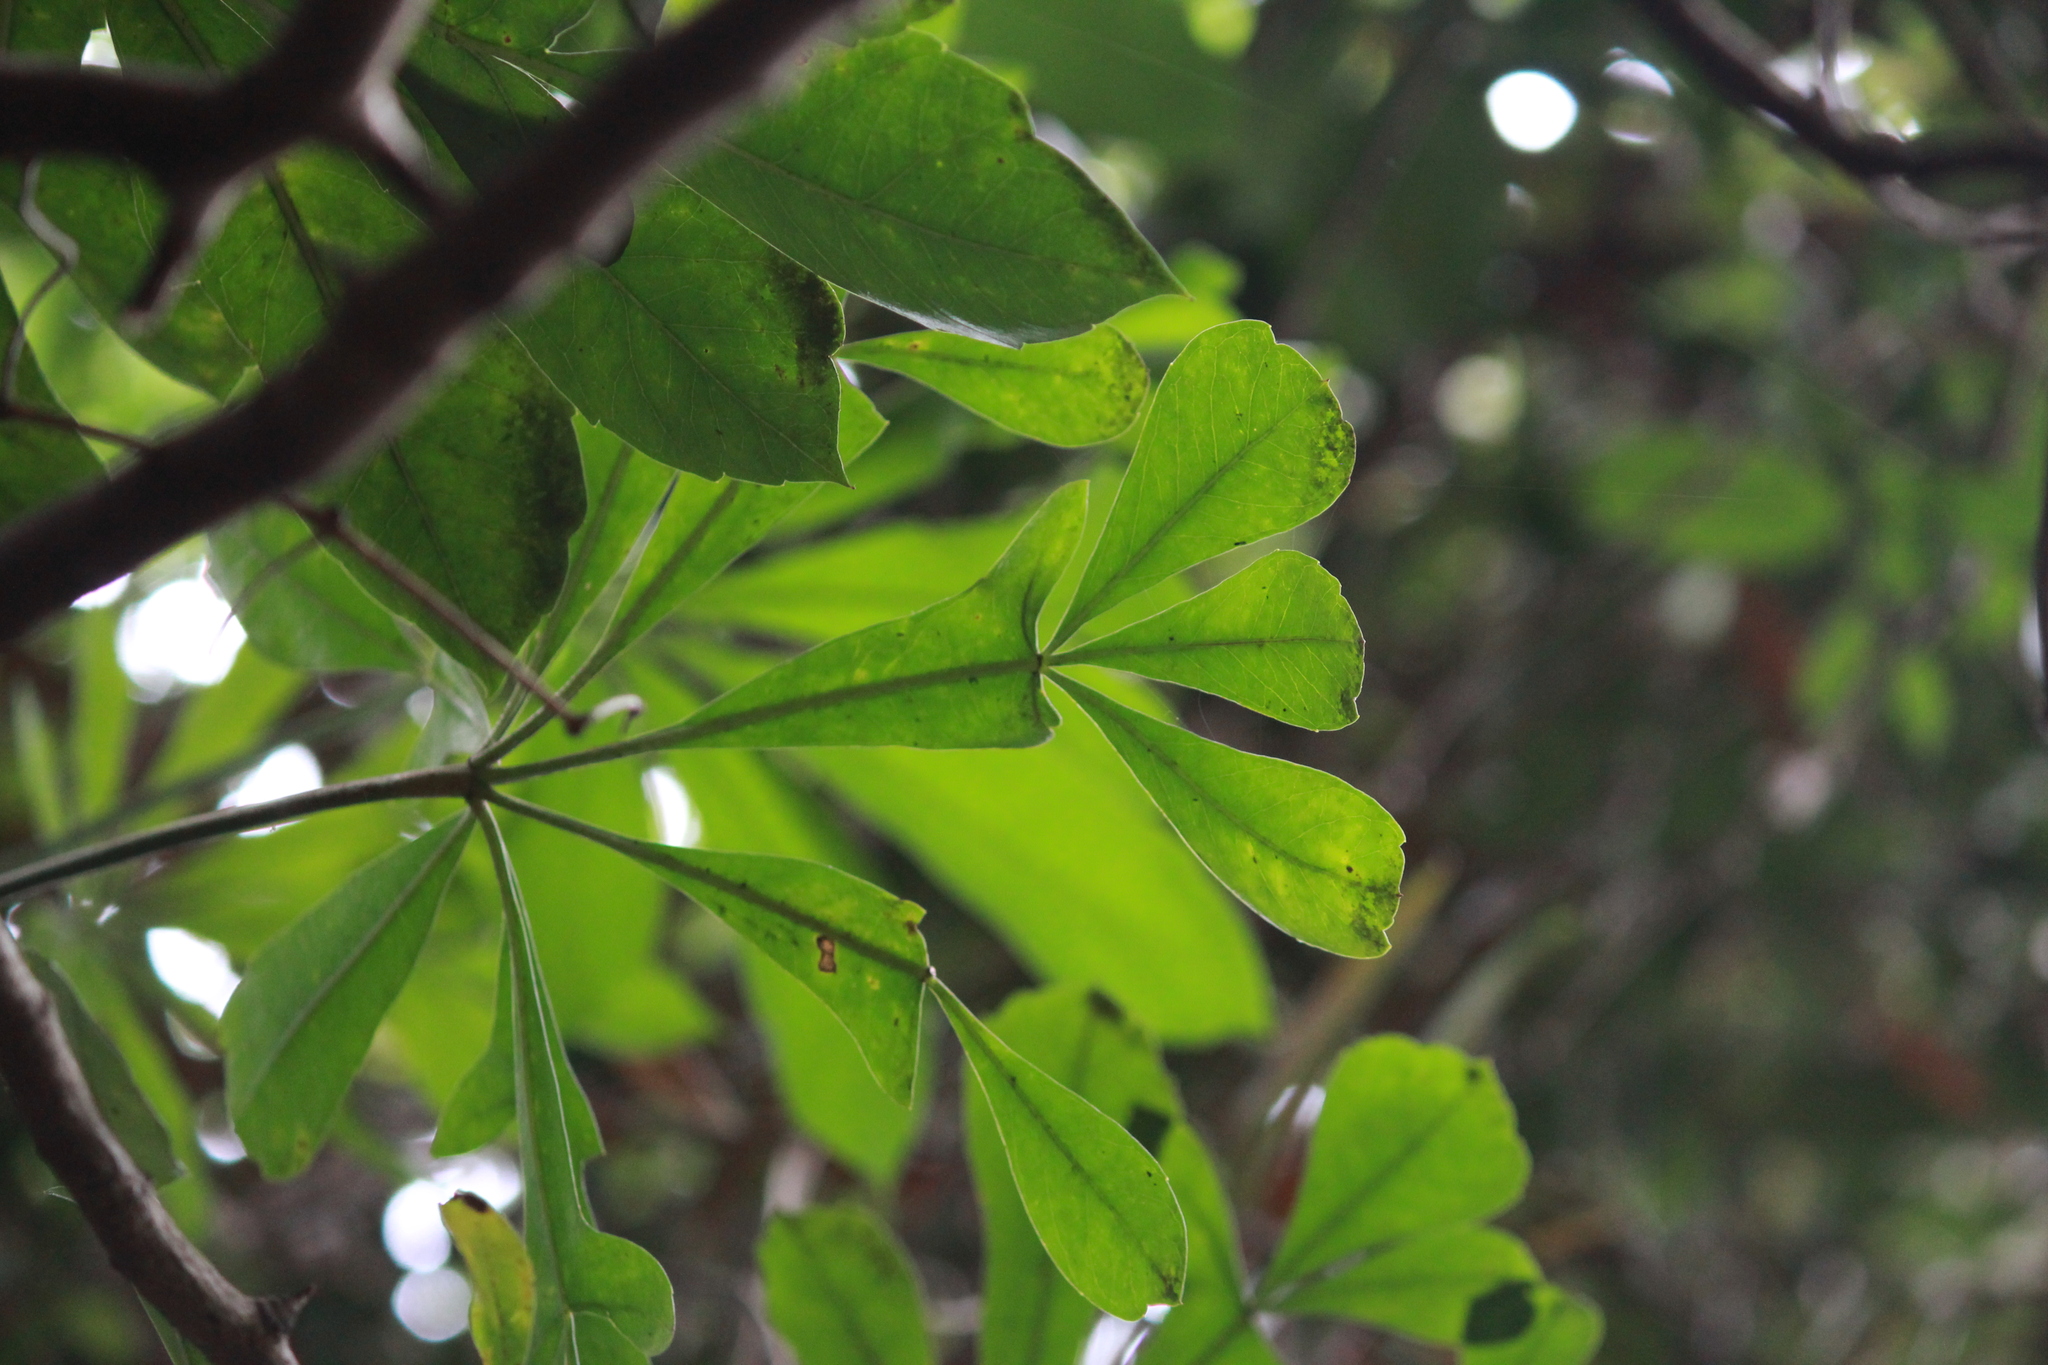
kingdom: Plantae
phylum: Tracheophyta
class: Magnoliopsida
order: Apiales
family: Araliaceae
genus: Cussonia
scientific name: Cussonia spicata
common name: Common cabbagetree
